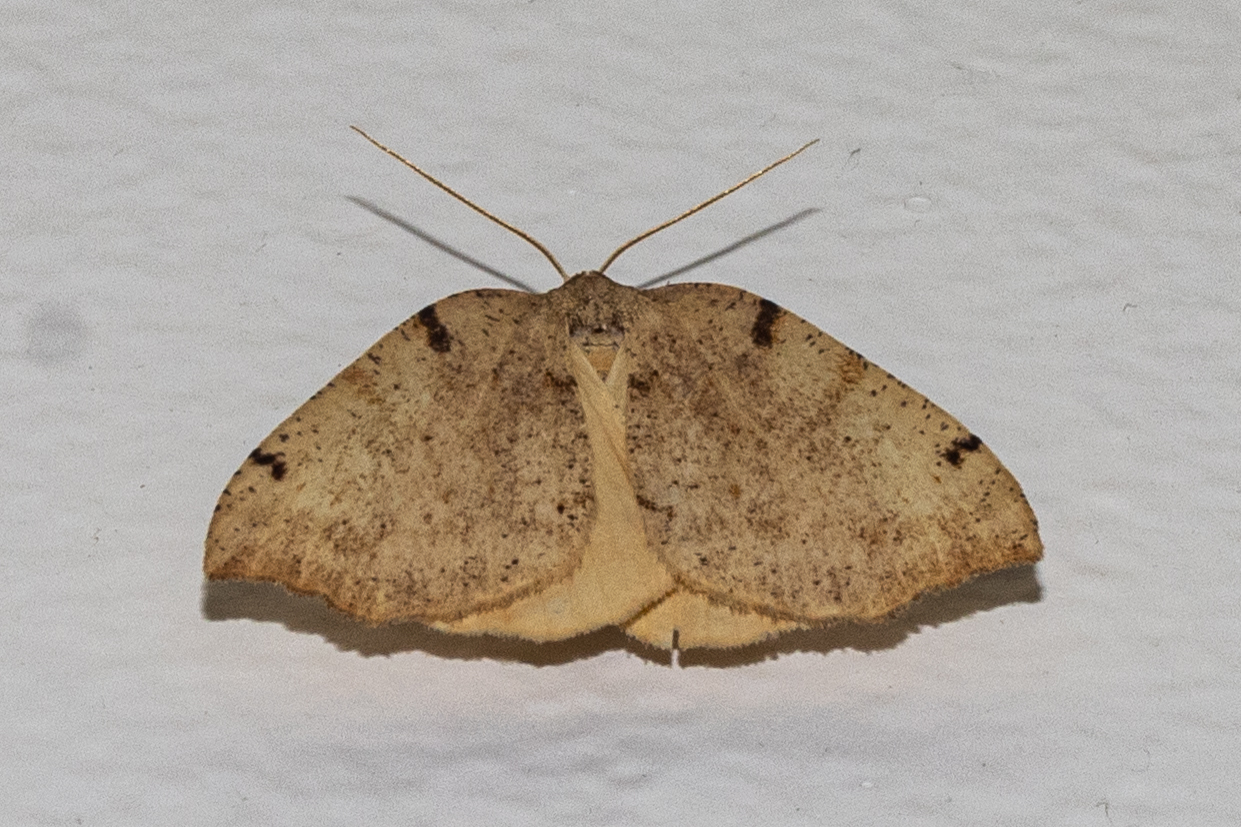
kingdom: Animalia
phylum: Arthropoda
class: Insecta
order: Lepidoptera
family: Geometridae
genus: Sestra
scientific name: Sestra humeraria
